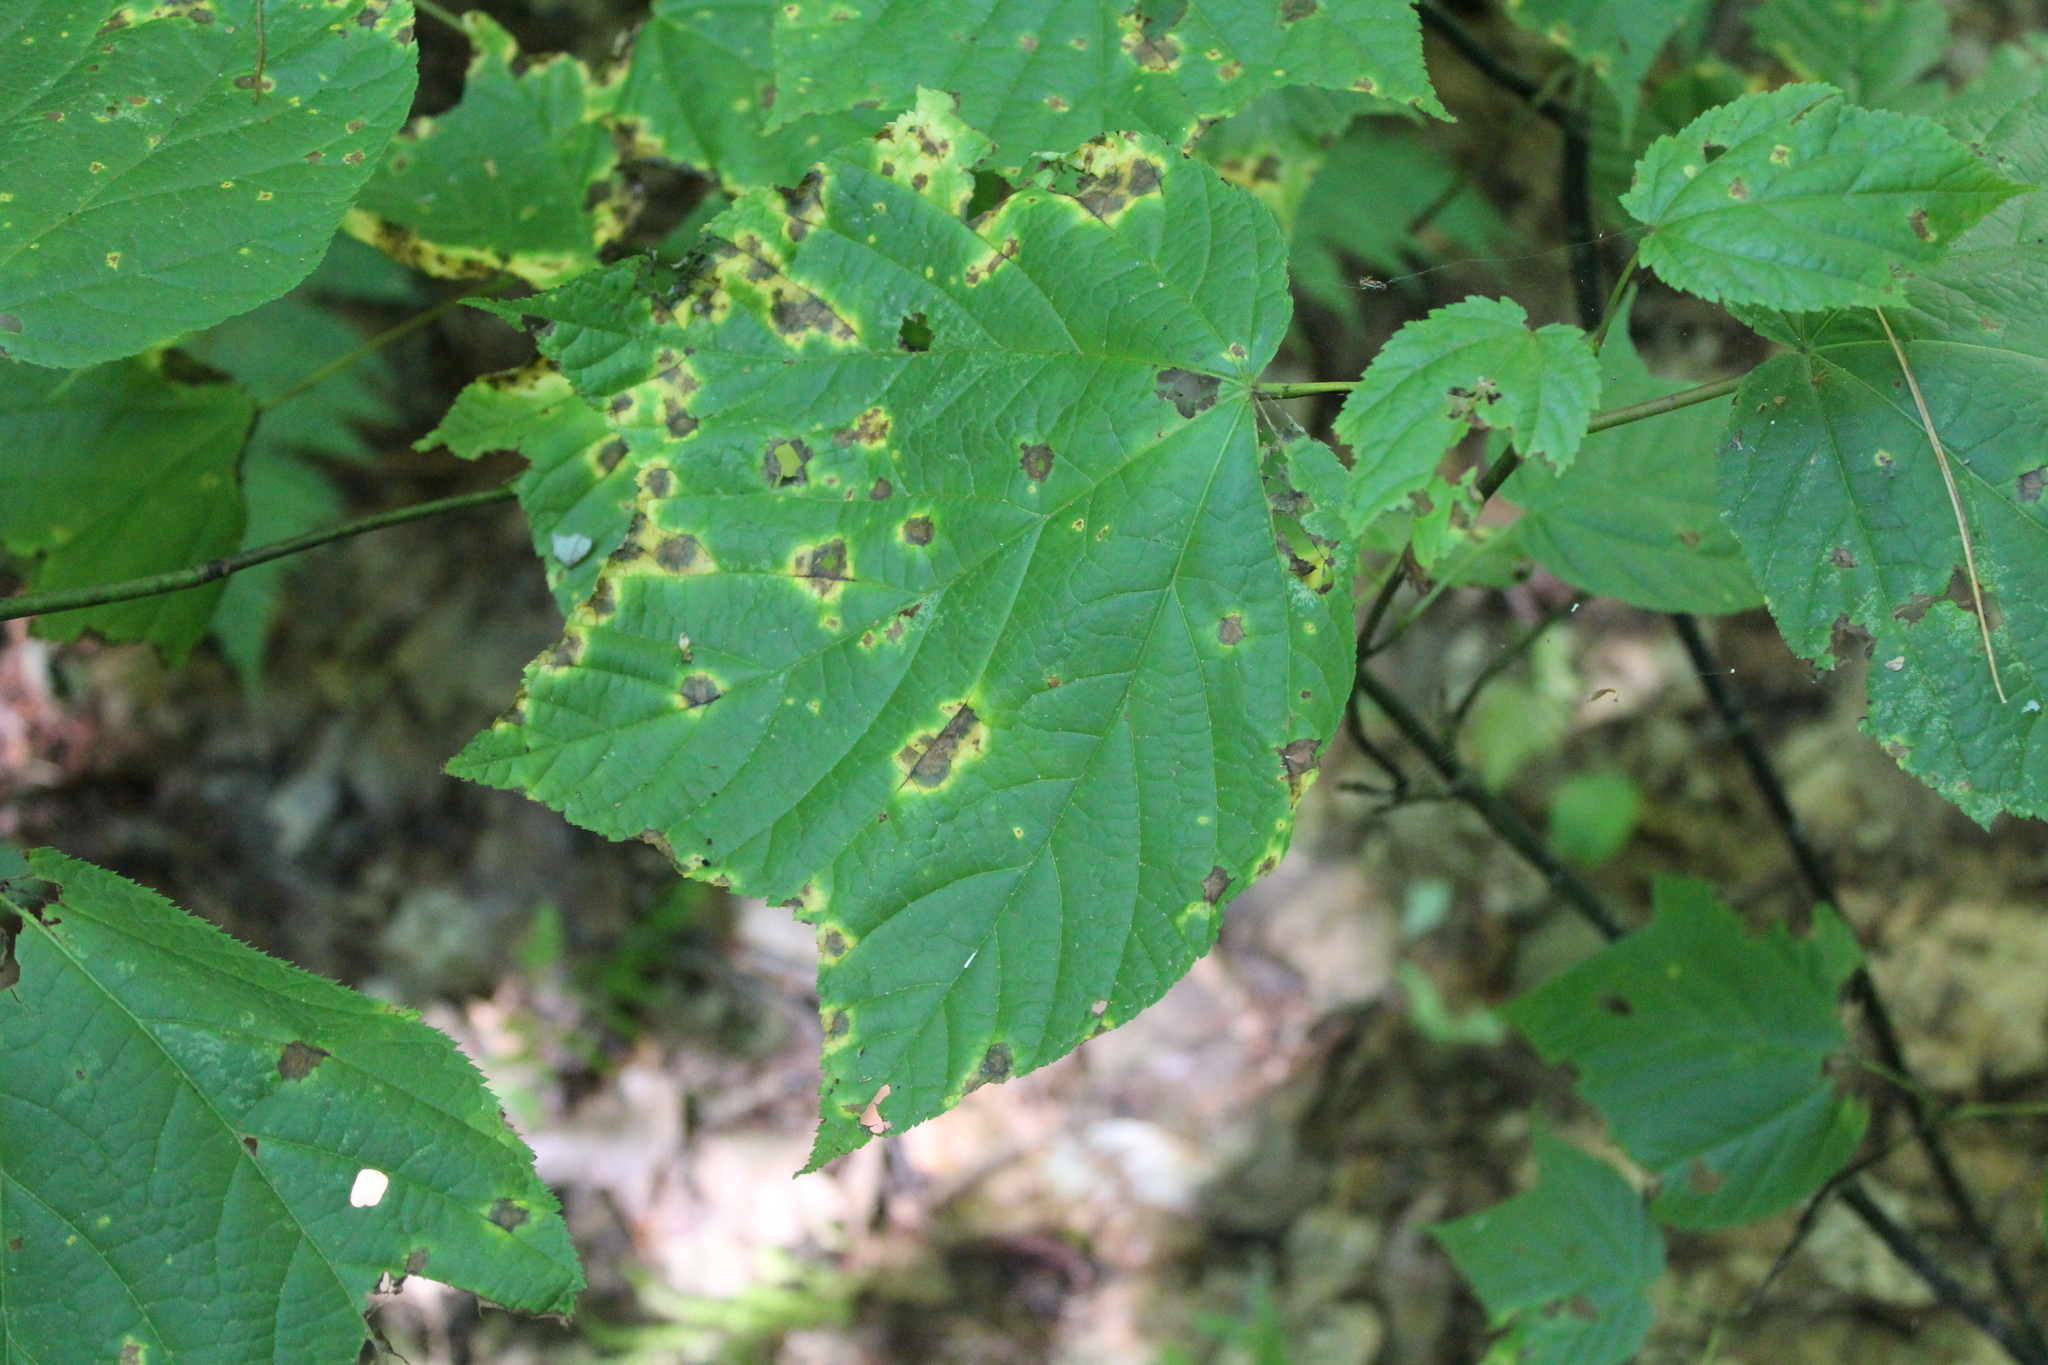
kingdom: Plantae
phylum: Tracheophyta
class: Magnoliopsida
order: Sapindales
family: Sapindaceae
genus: Acer
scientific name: Acer pensylvanicum
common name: Moosewood
